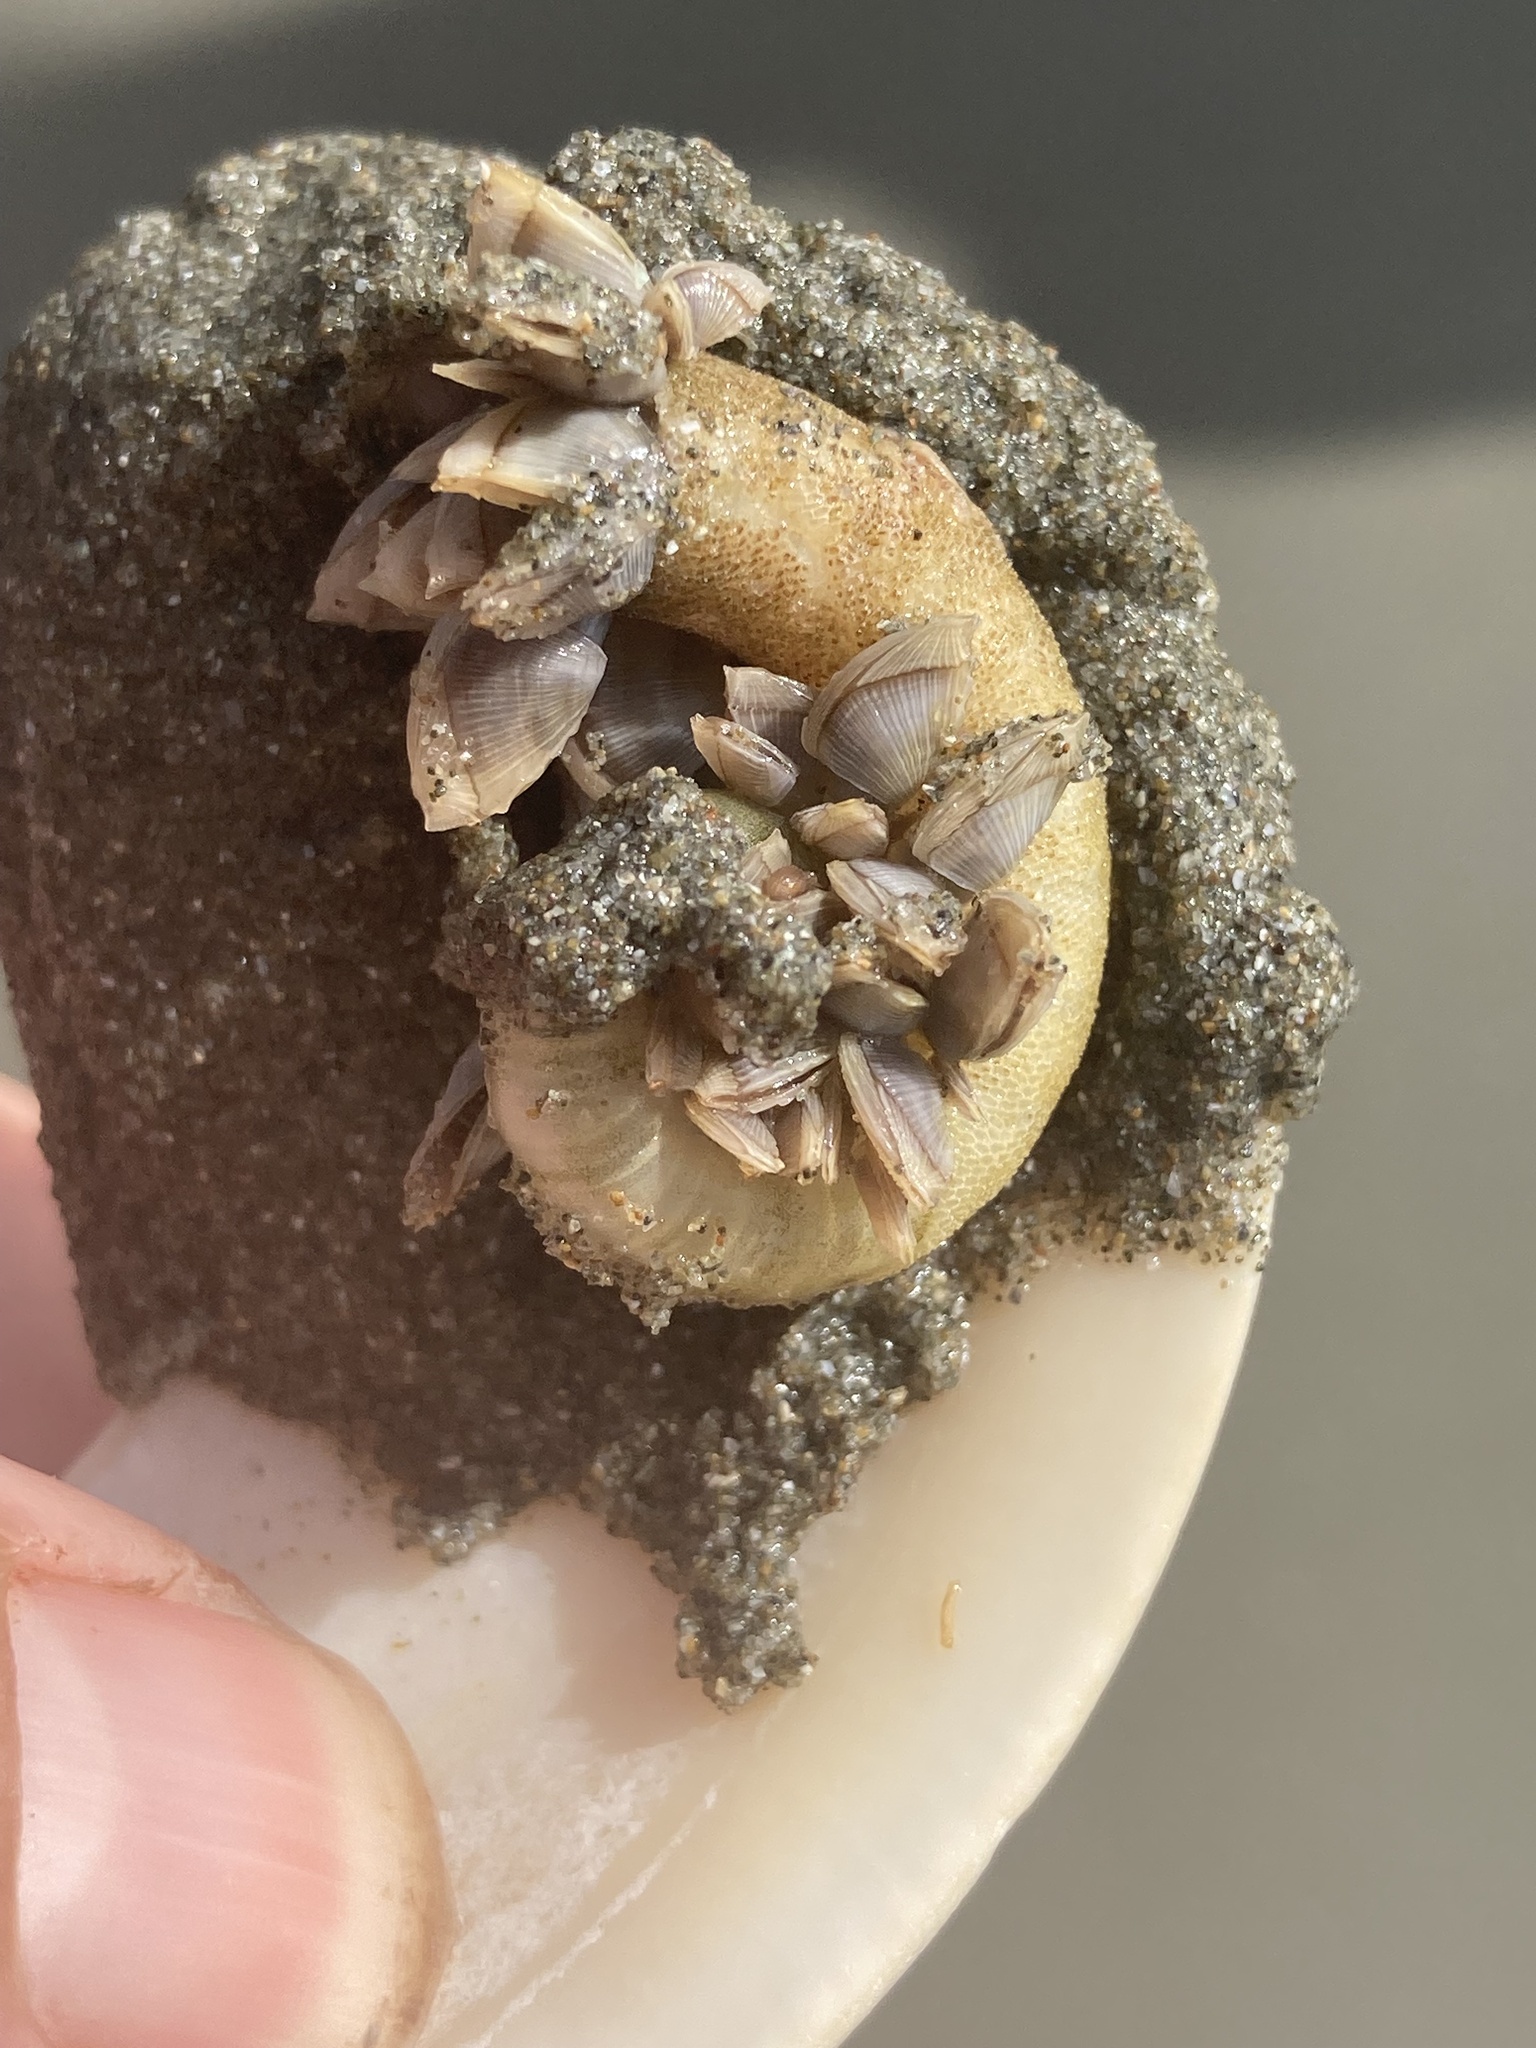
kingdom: Animalia
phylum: Arthropoda
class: Maxillopoda
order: Pedunculata
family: Lepadidae
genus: Lepas
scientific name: Lepas pectinata
